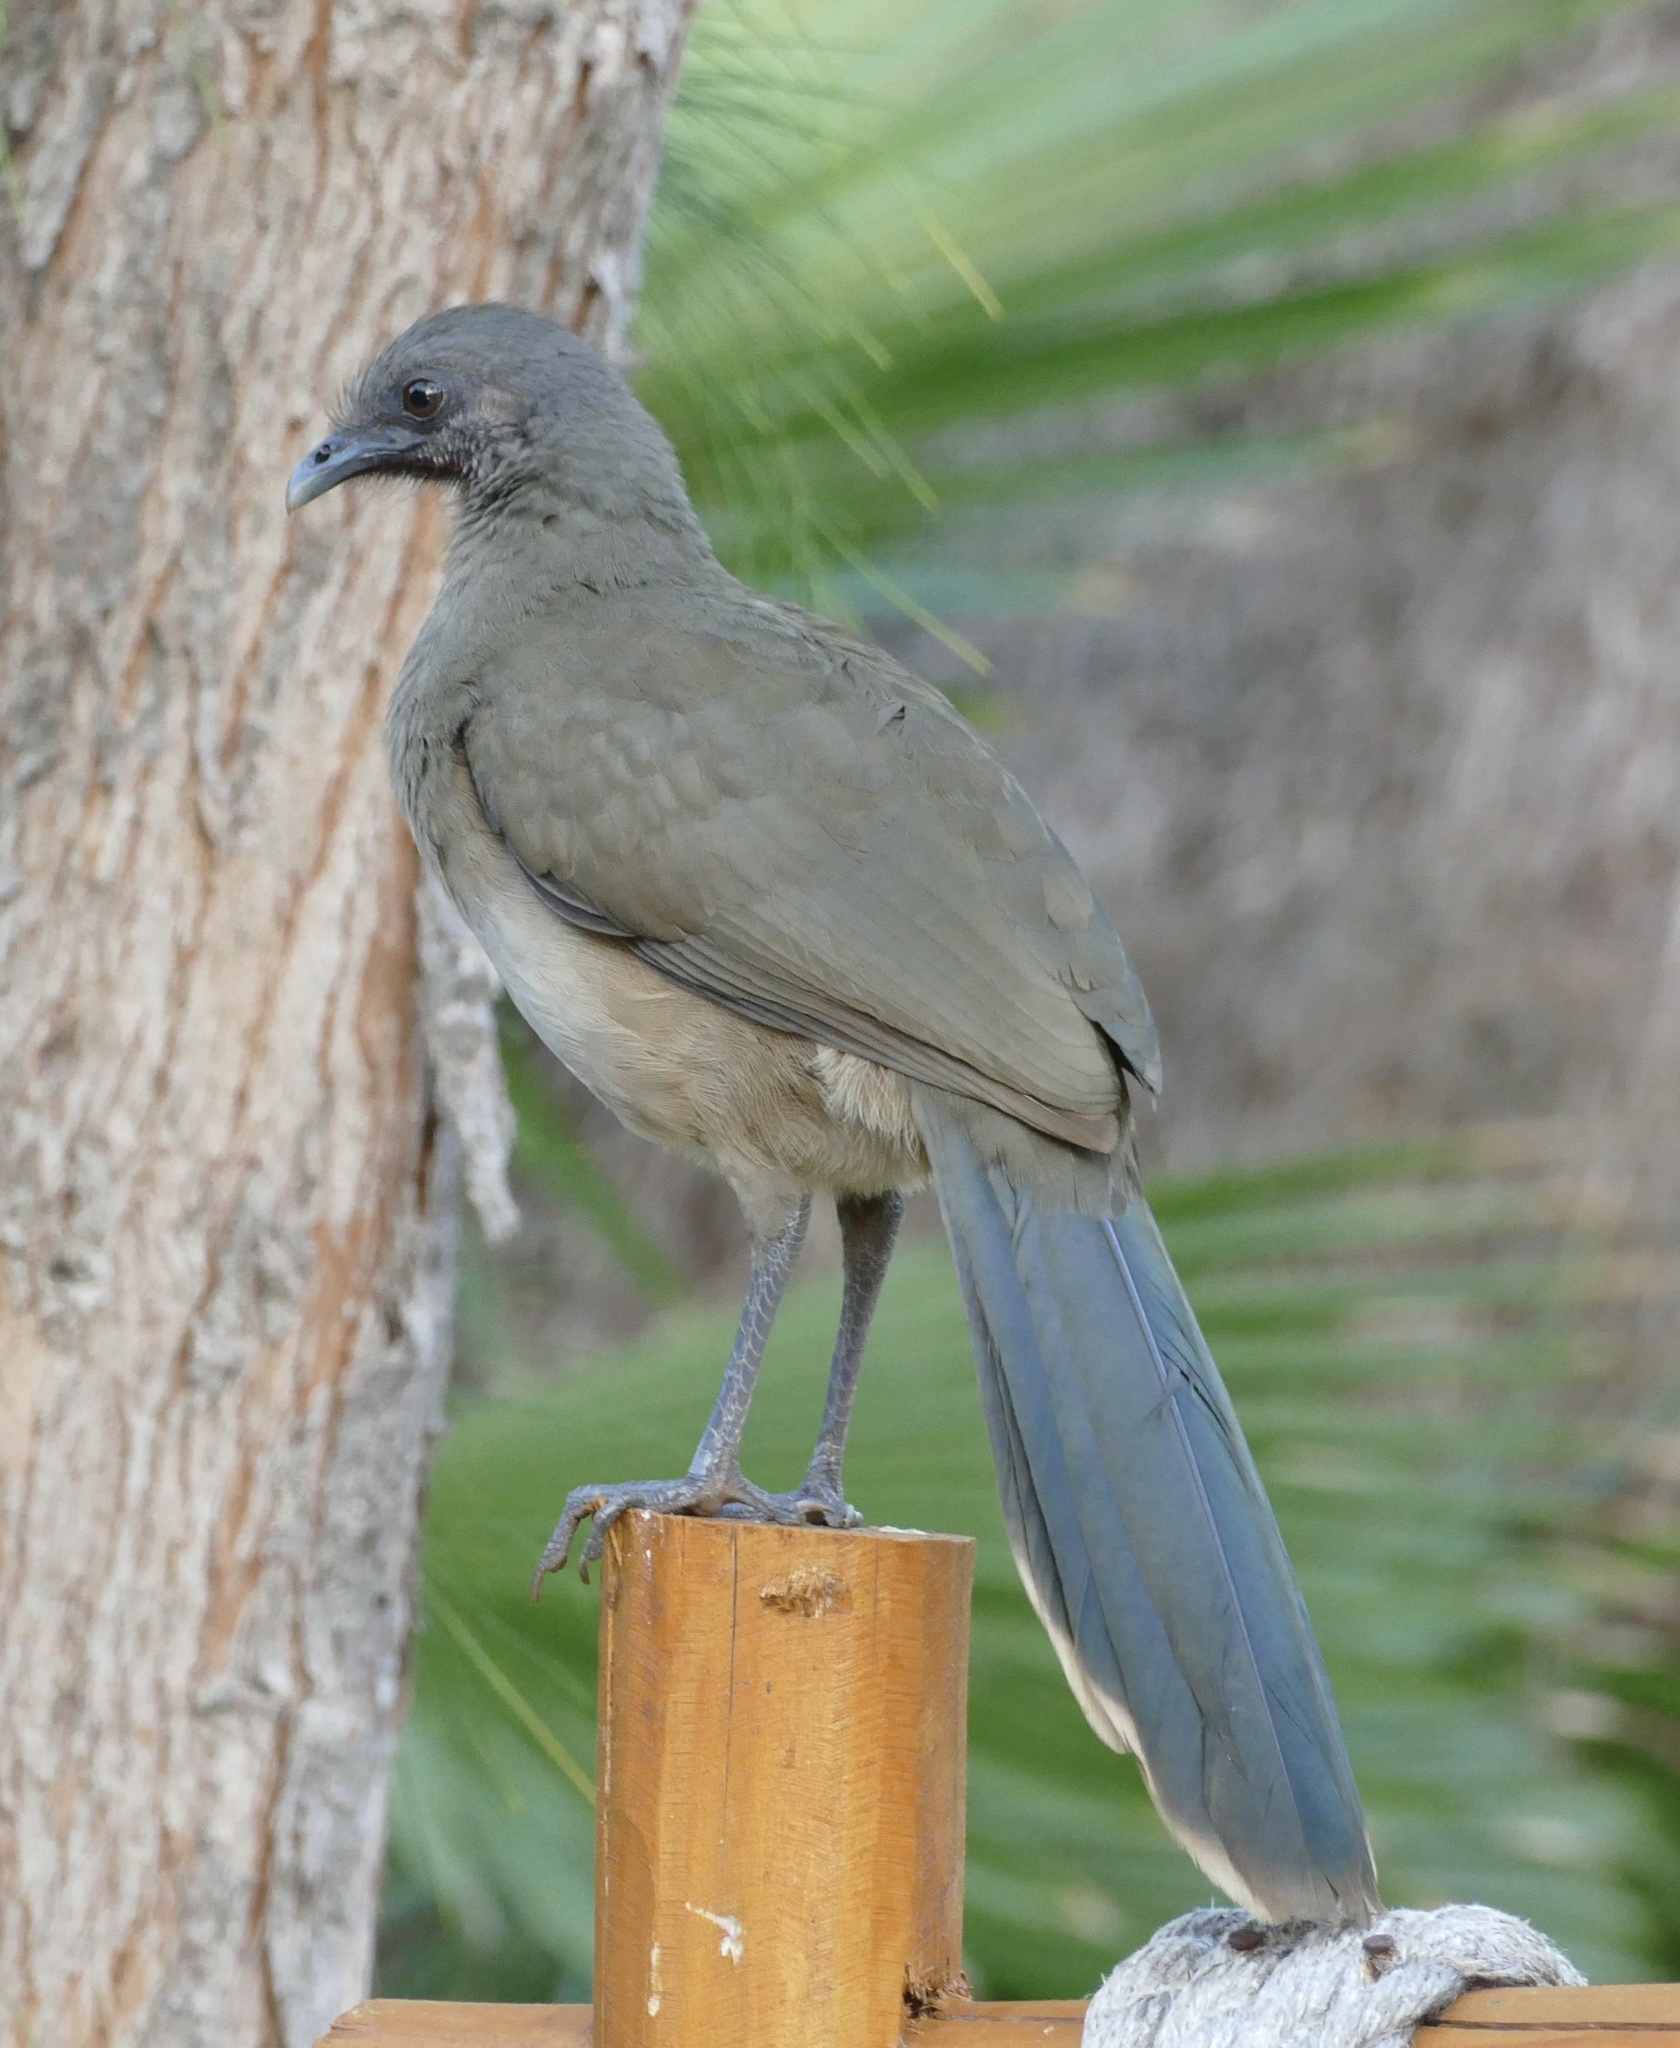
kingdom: Animalia
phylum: Chordata
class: Aves
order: Galliformes
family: Cracidae
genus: Ortalis
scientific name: Ortalis vetula
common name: Plain chachalaca
